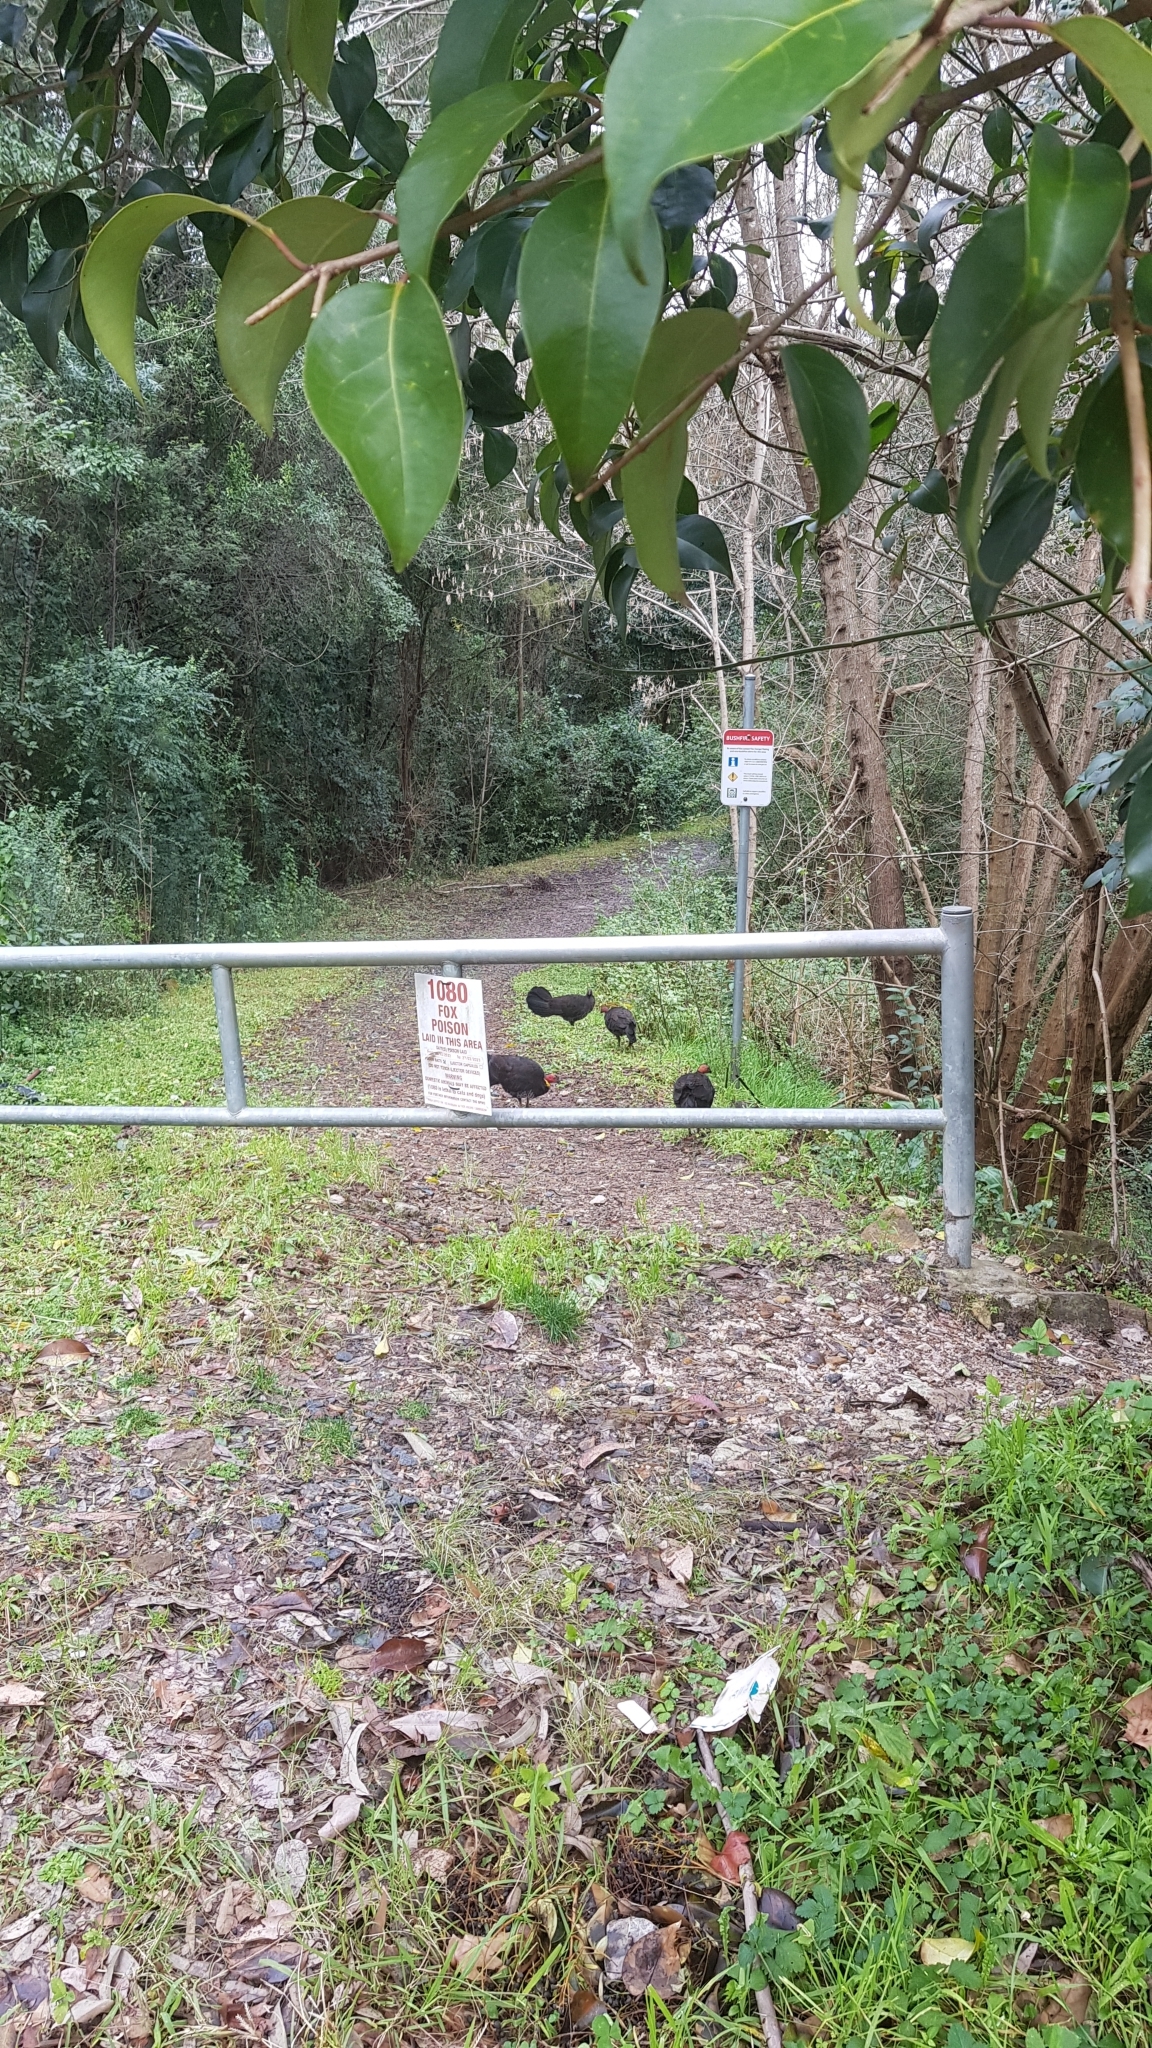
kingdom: Animalia
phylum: Chordata
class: Aves
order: Galliformes
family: Megapodiidae
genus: Alectura
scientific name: Alectura lathami
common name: Australian brushturkey
